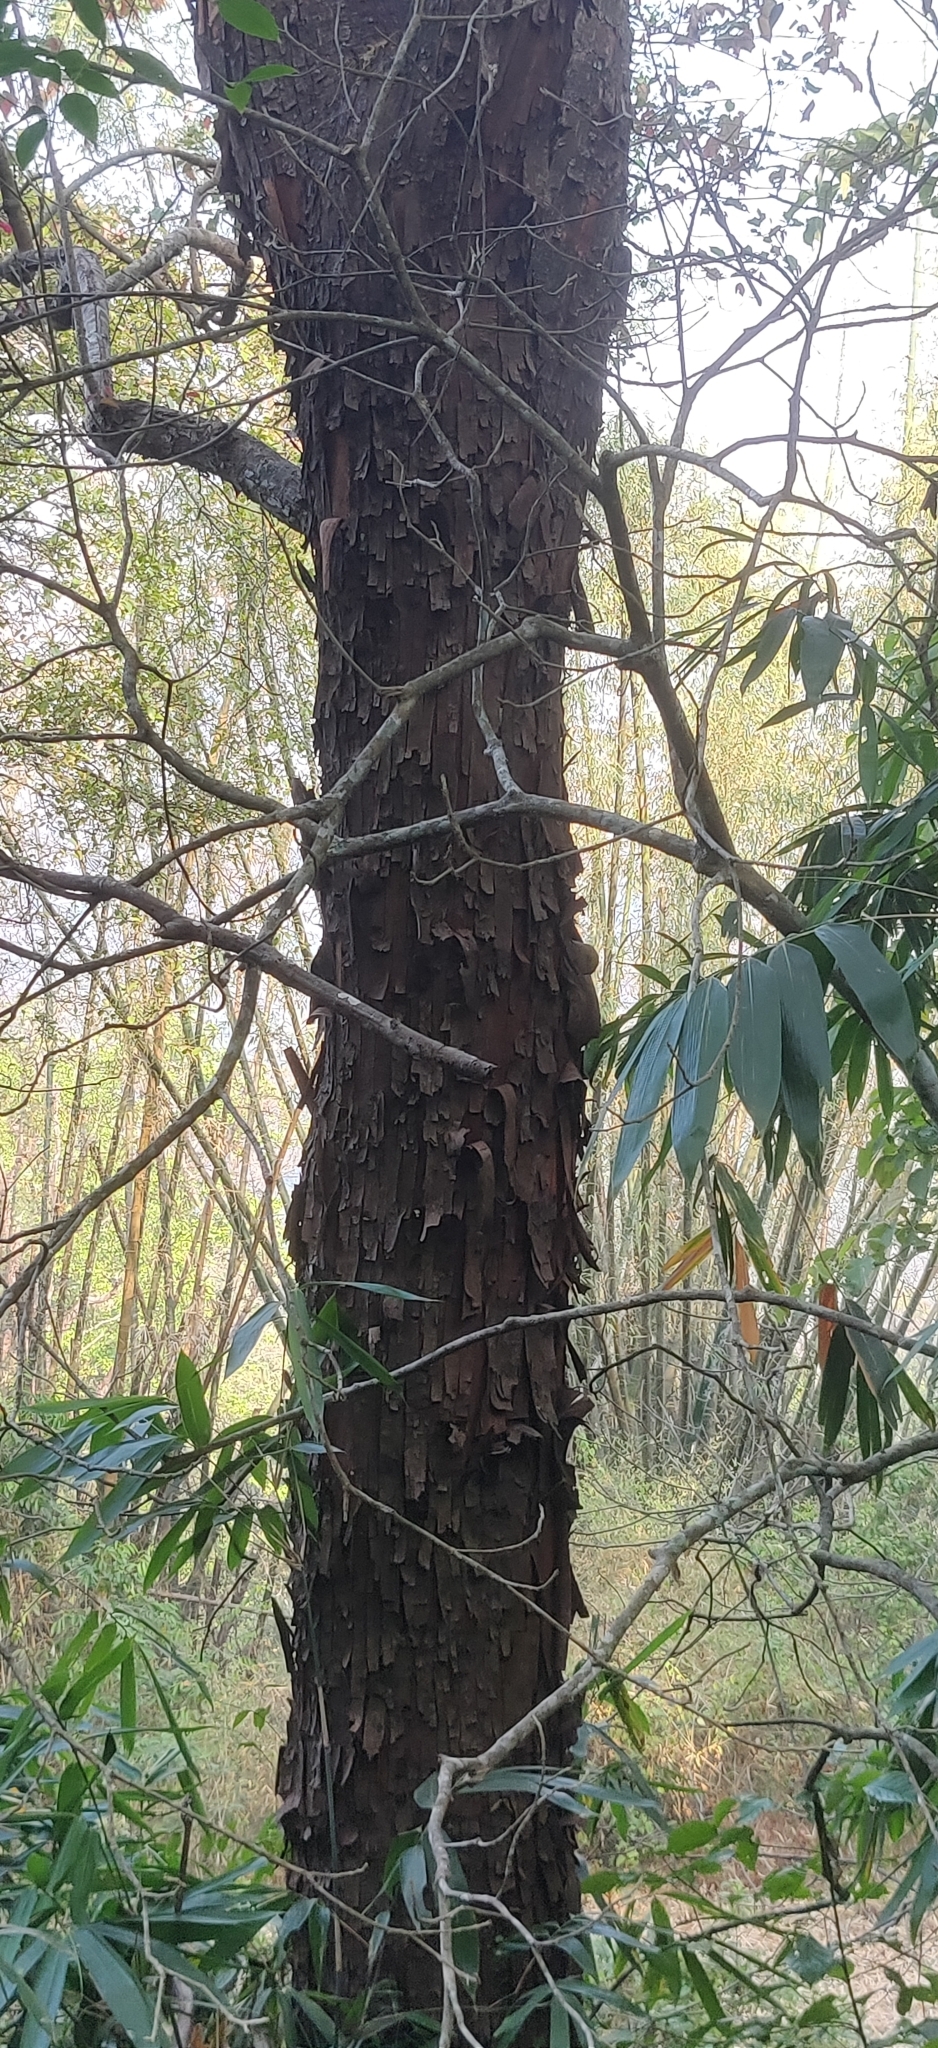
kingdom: Plantae
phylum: Tracheophyta
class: Magnoliopsida
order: Sapindales
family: Meliaceae
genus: Melia
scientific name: Melia dubia
